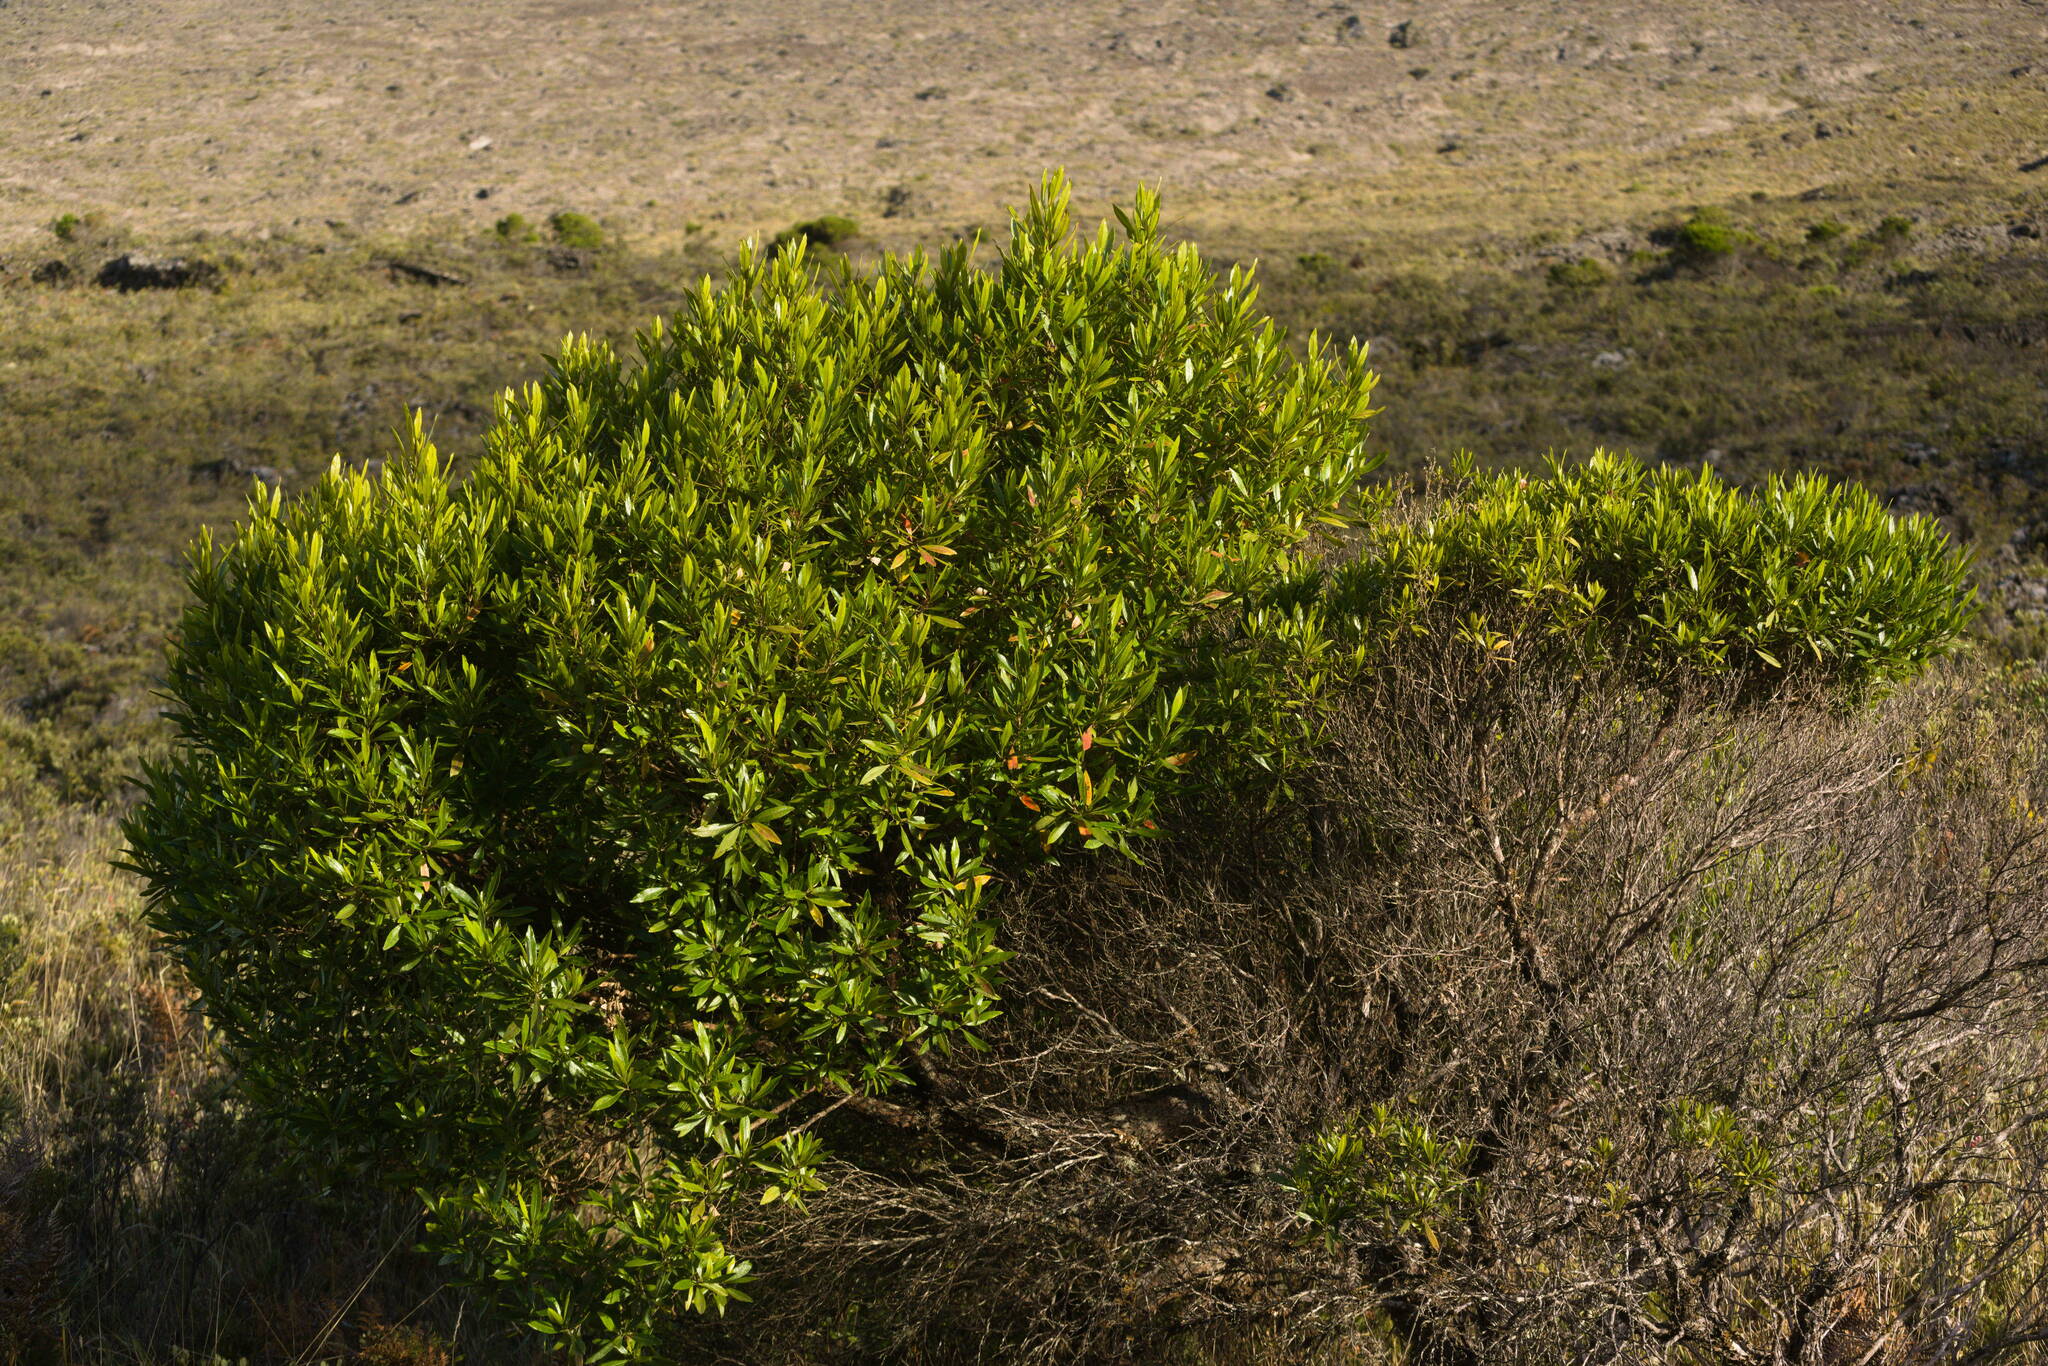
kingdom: Plantae
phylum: Tracheophyta
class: Magnoliopsida
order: Sapindales
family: Sapindaceae
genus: Dodonaea
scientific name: Dodonaea viscosa
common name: Hopbush
